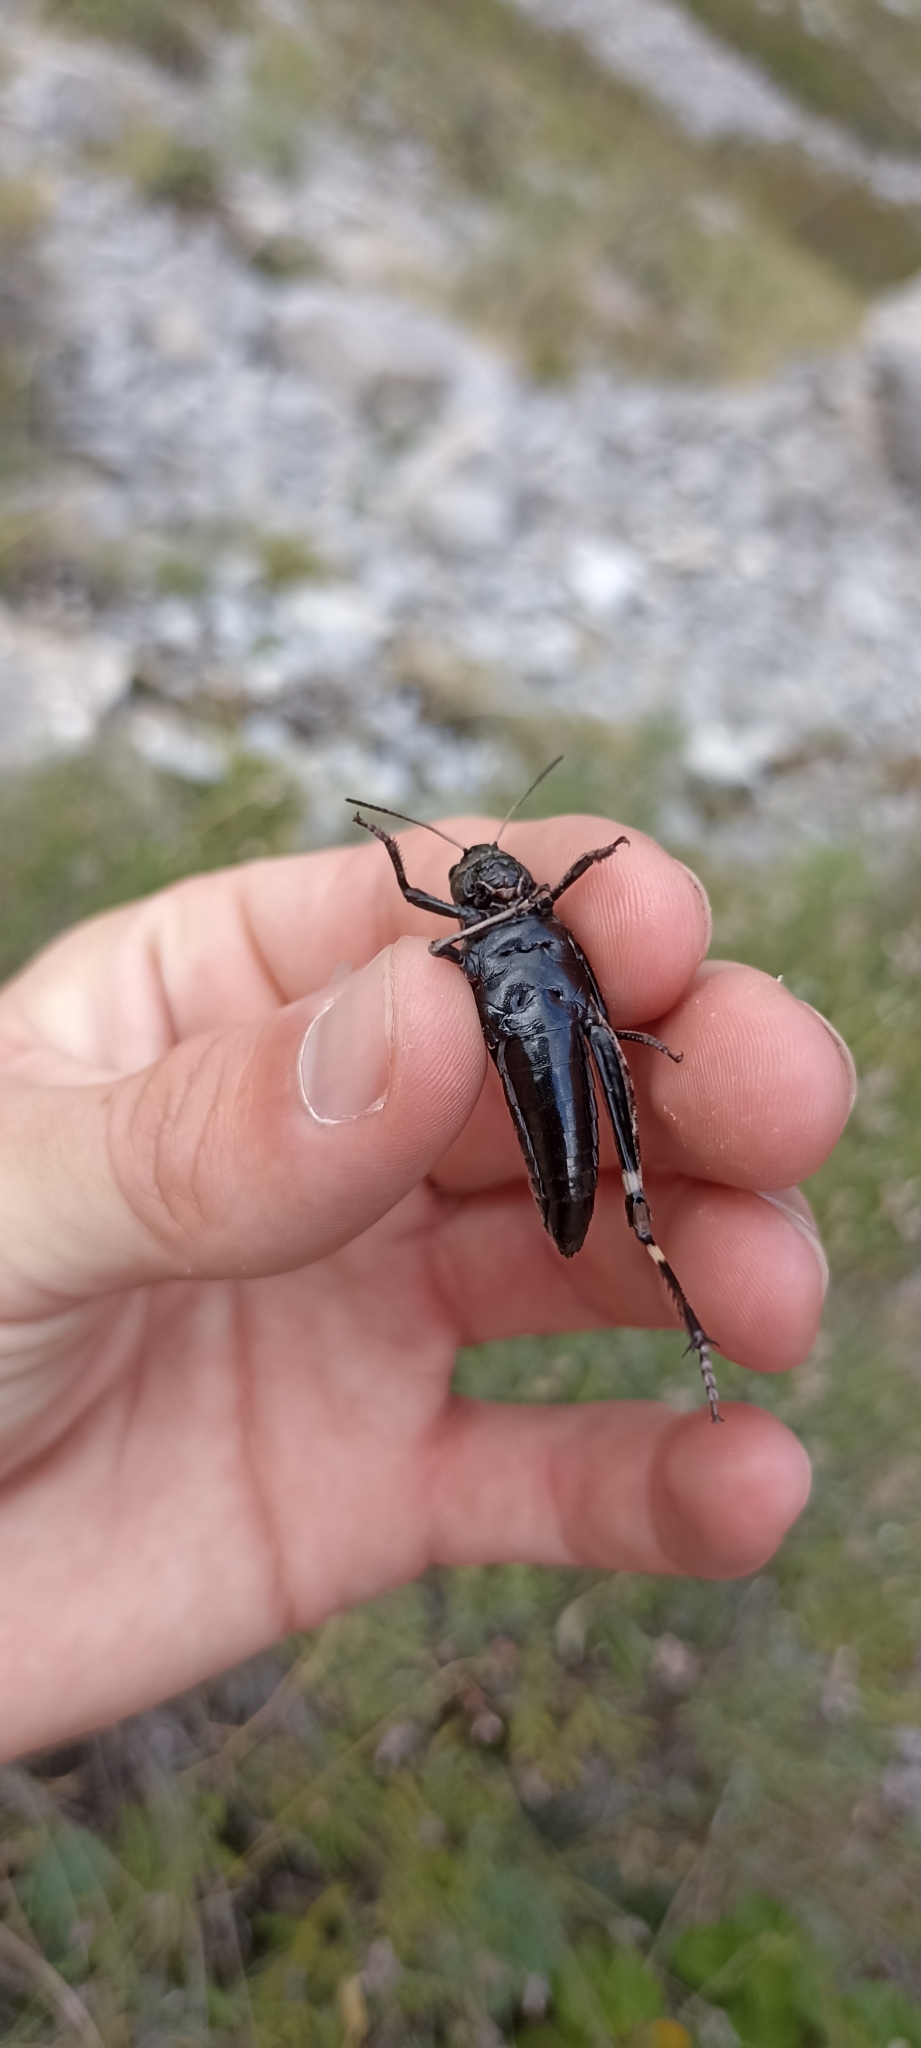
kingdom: Animalia
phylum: Arthropoda
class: Insecta
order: Orthoptera
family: Acrididae
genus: Psophus
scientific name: Psophus stridulus
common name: Rattle grasshopper
